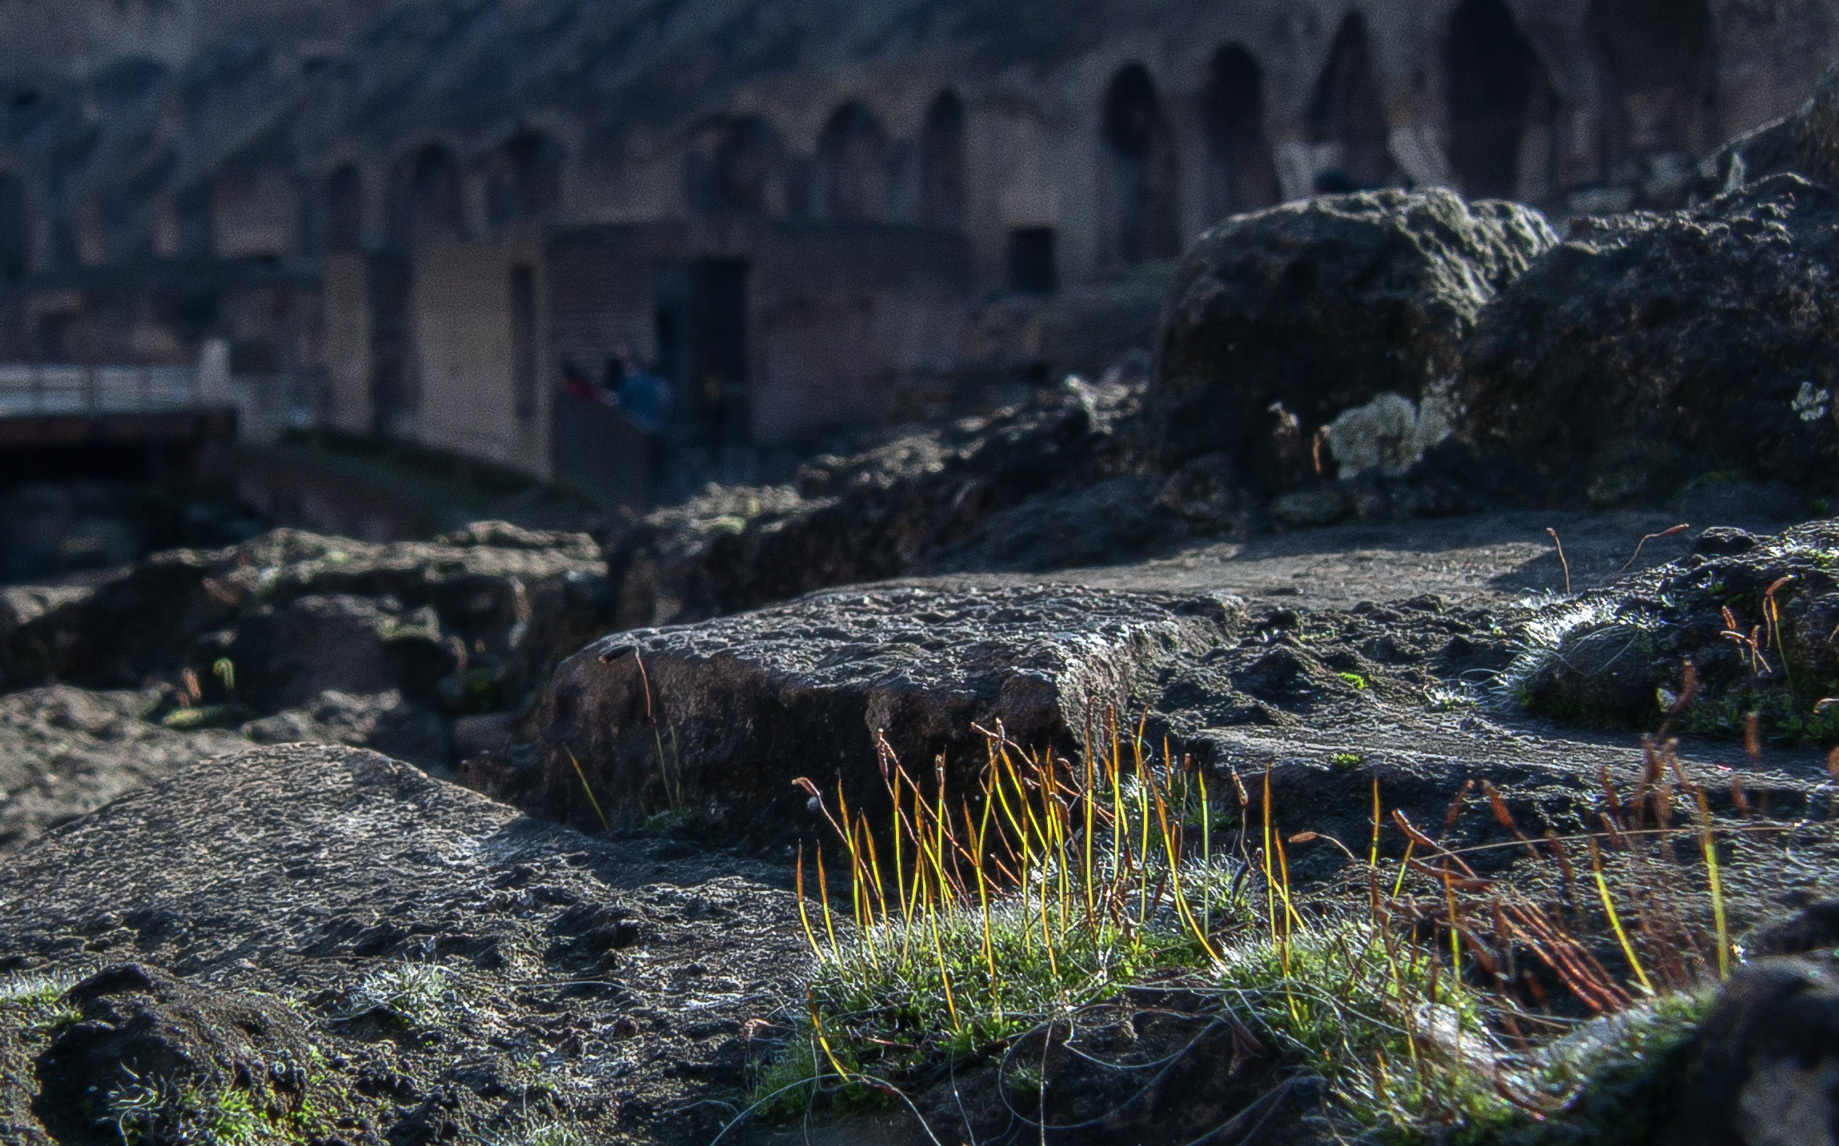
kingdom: Plantae
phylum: Bryophyta
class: Bryopsida
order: Pottiales
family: Pottiaceae
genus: Tortula
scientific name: Tortula muralis
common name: Wall screw-moss
